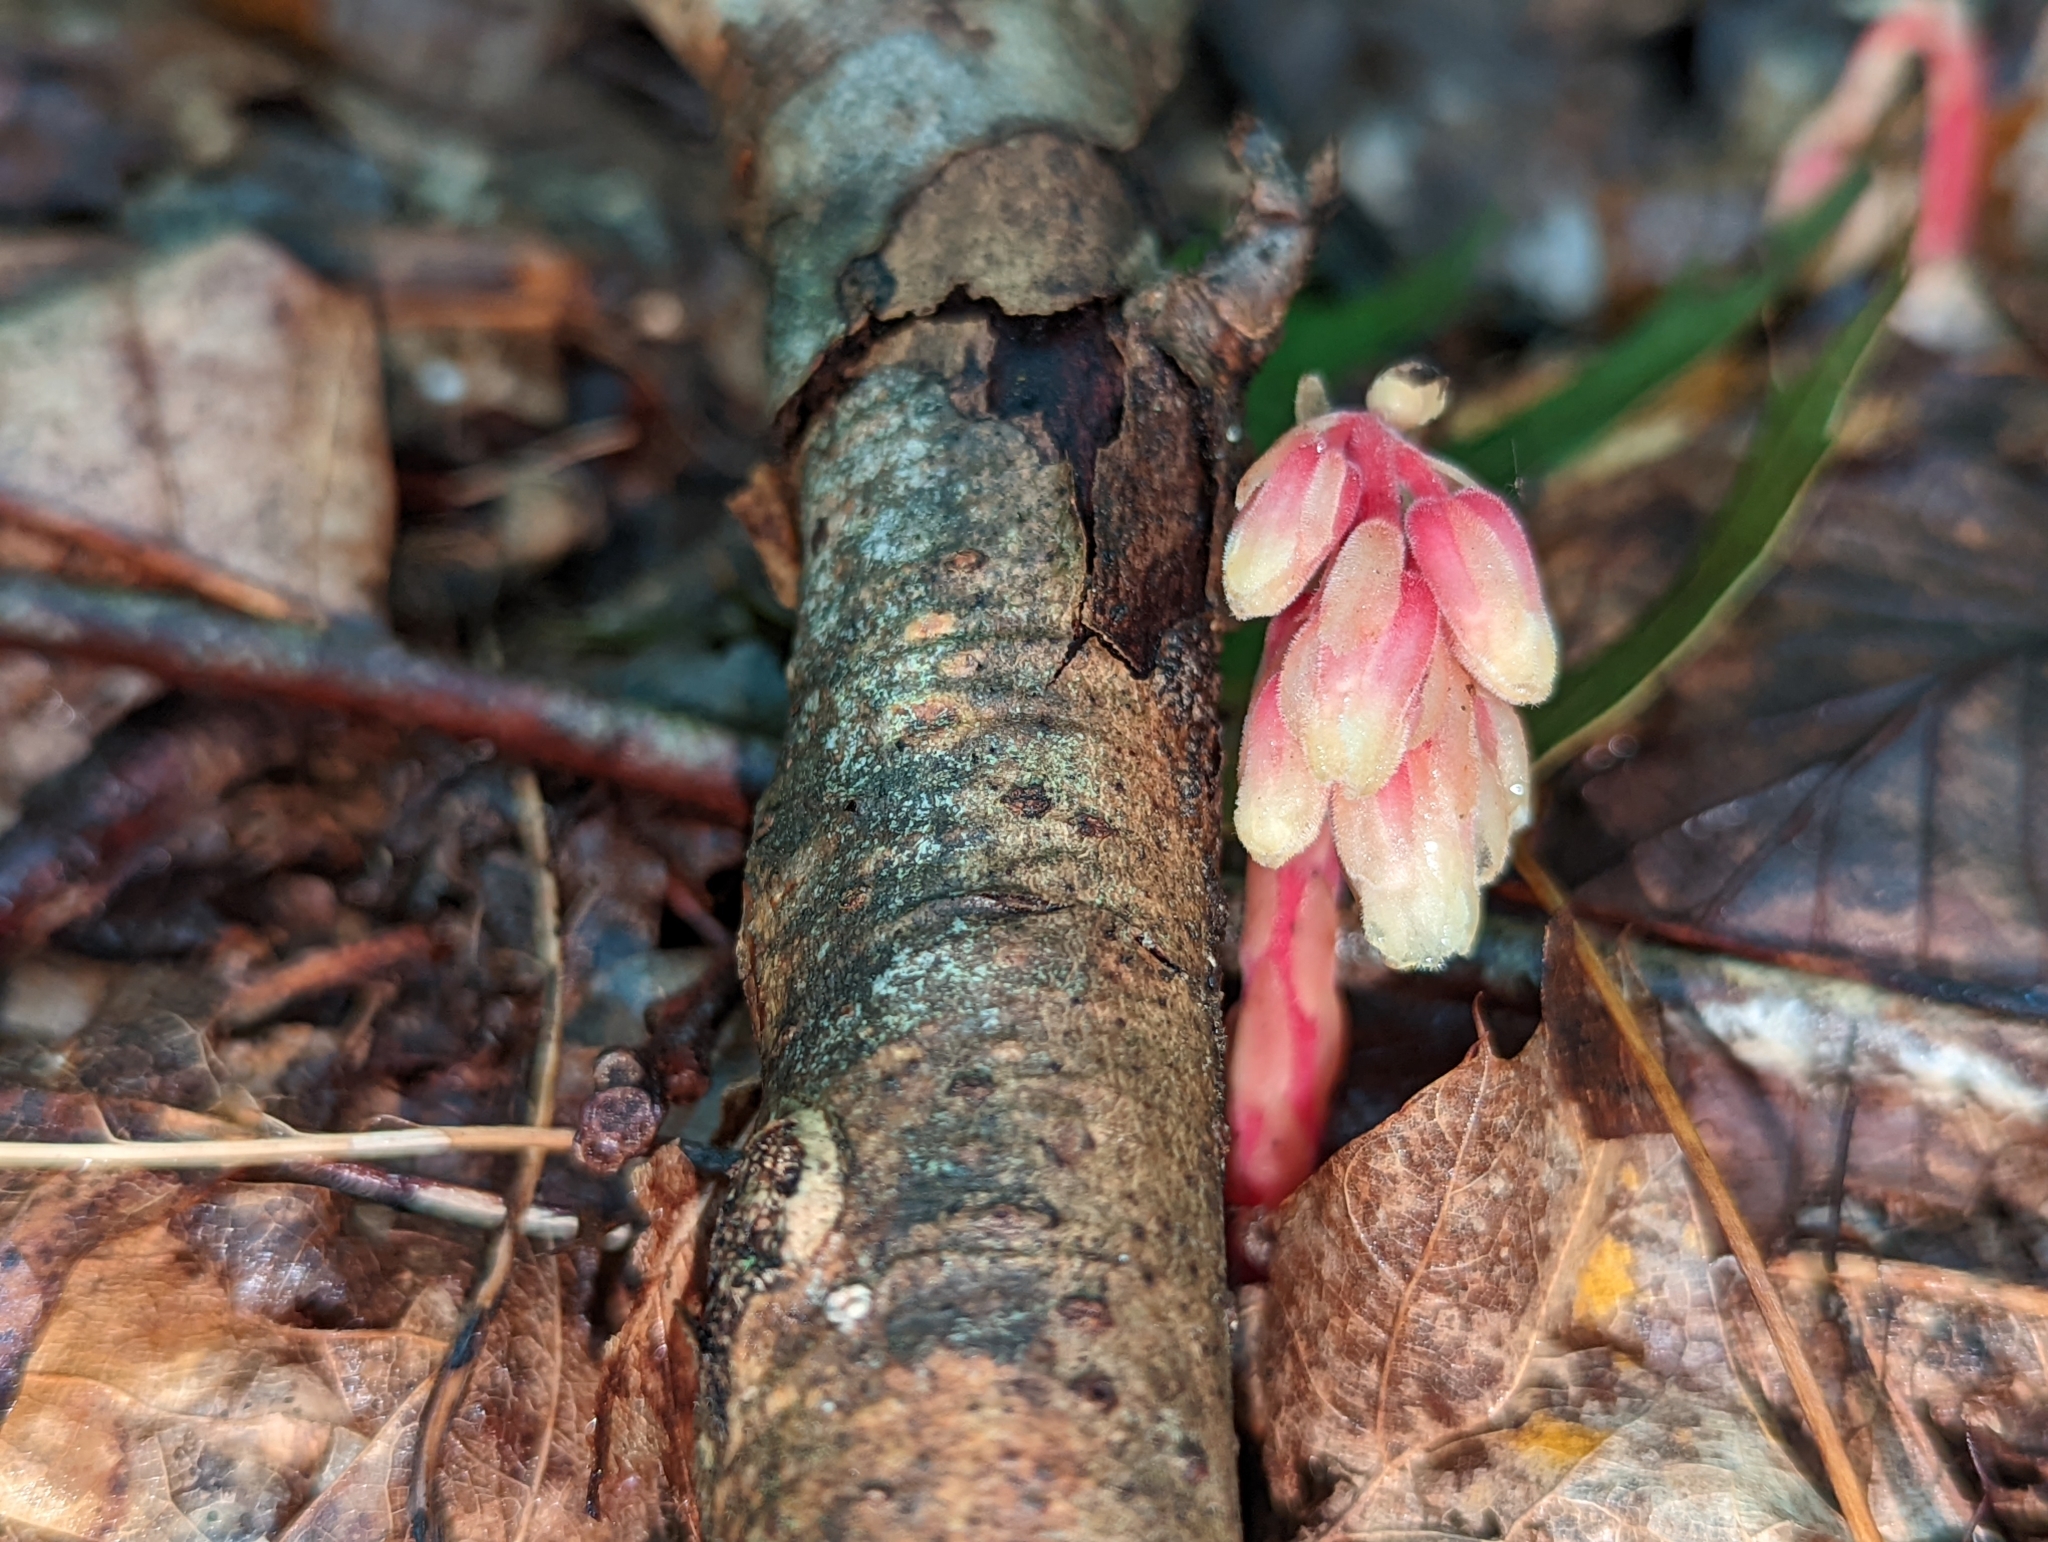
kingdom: Plantae
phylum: Tracheophyta
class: Magnoliopsida
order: Ericales
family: Ericaceae
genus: Hypopitys
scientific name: Hypopitys monotropa
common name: Yellow bird's-nest
